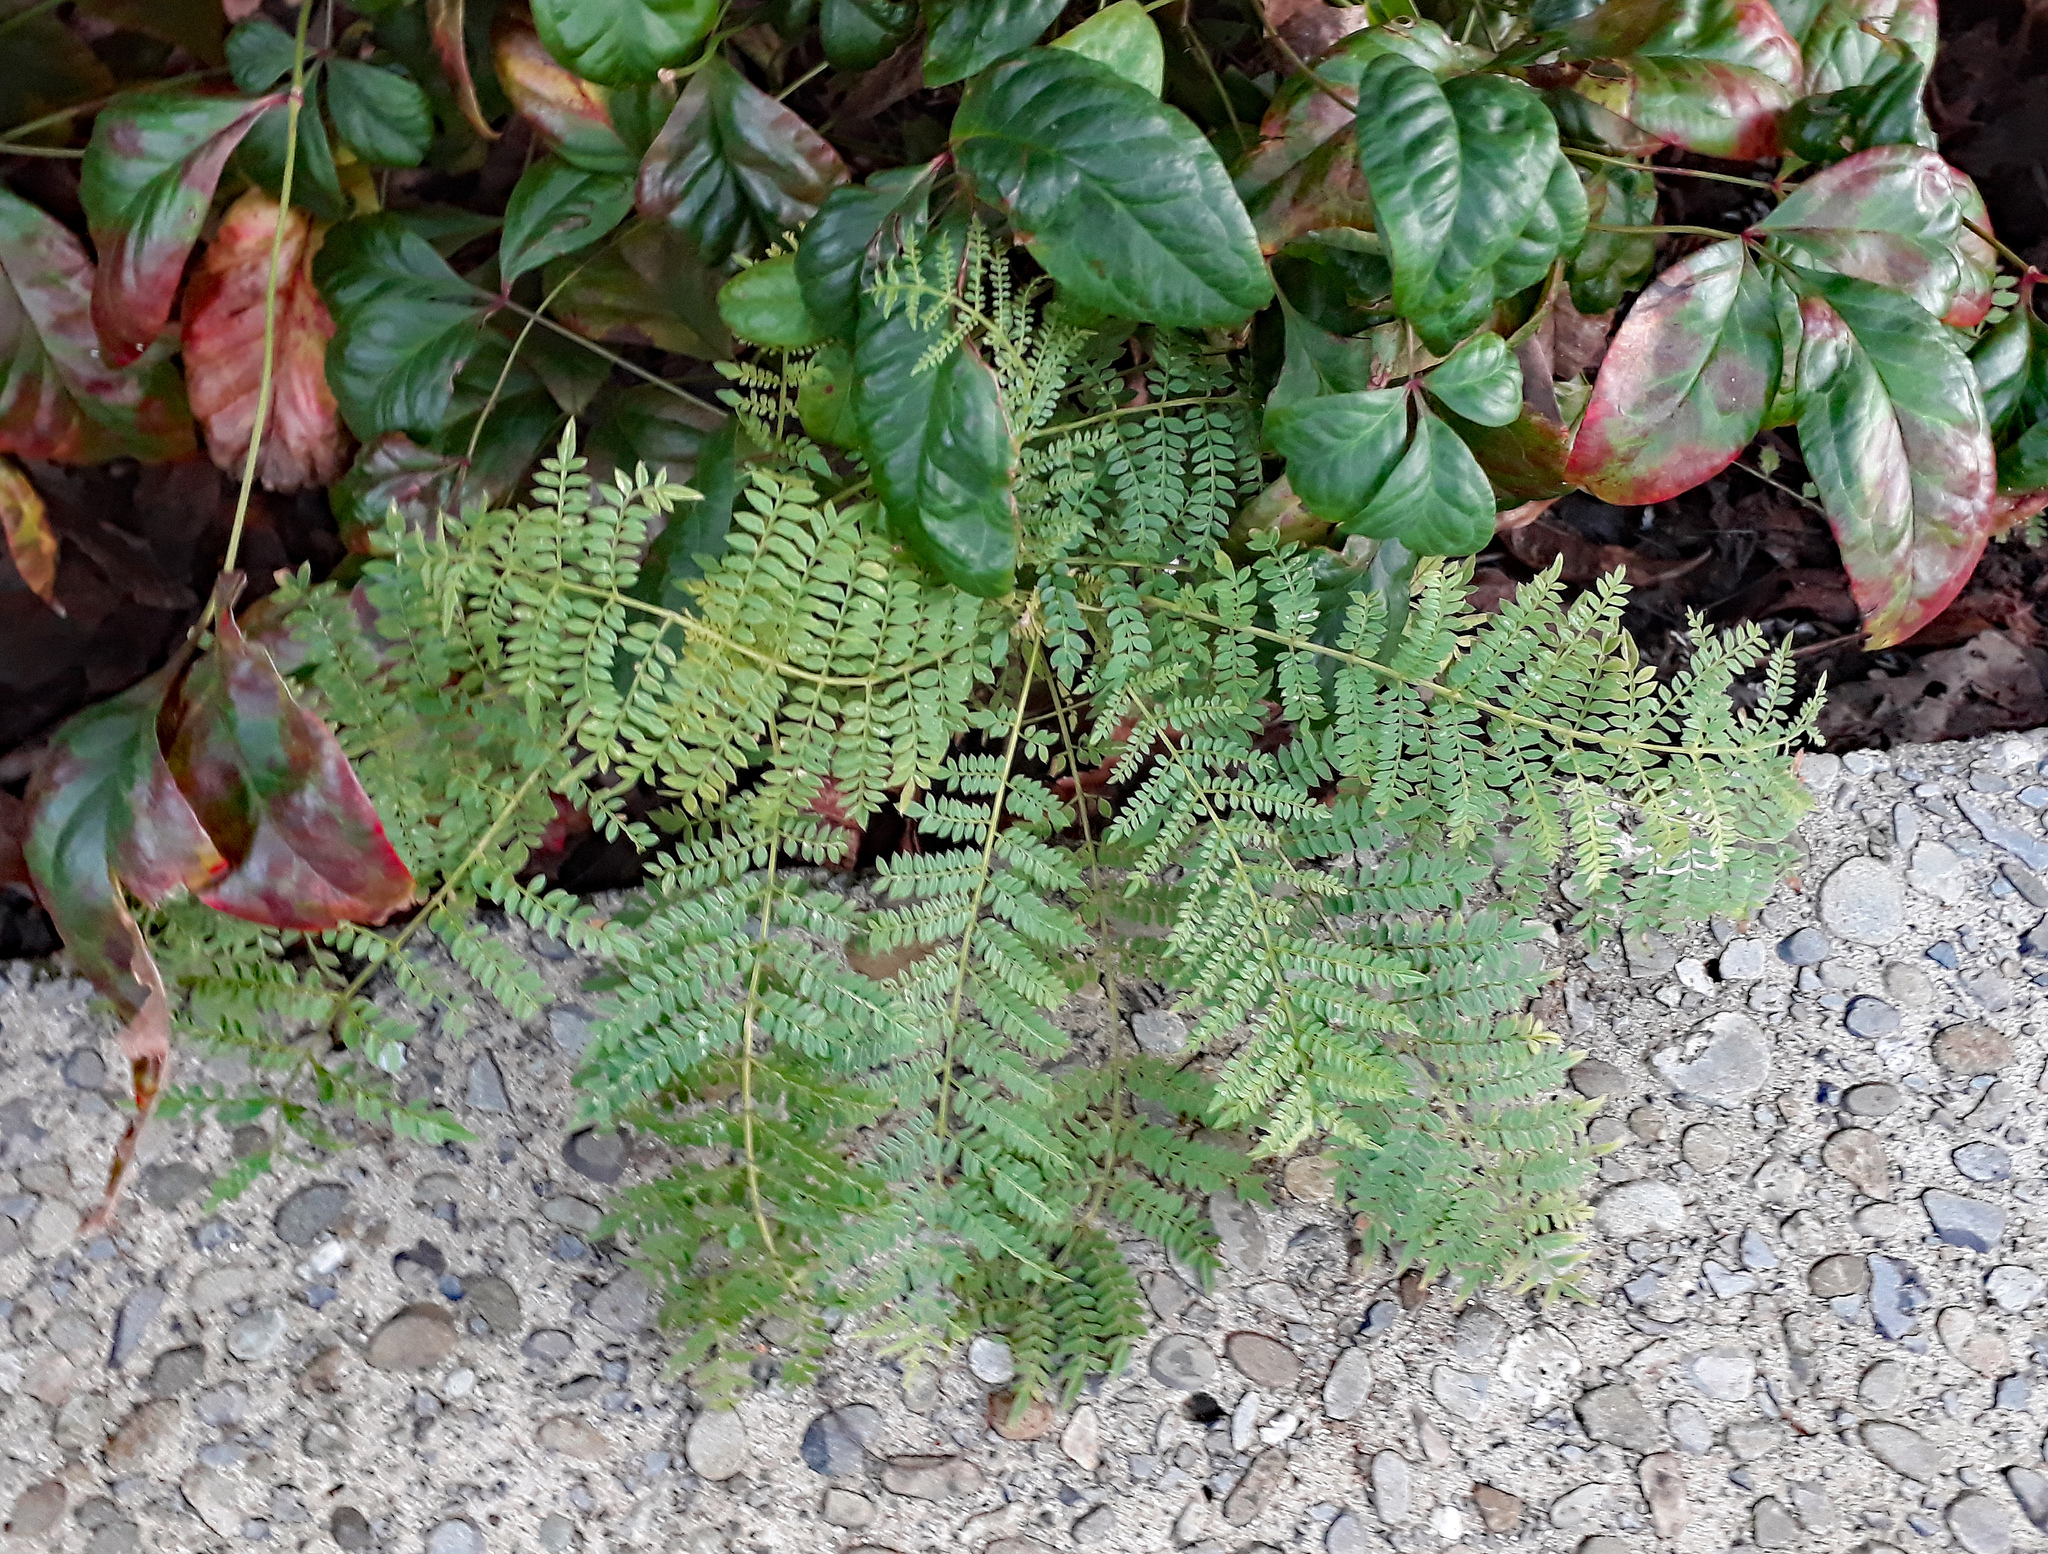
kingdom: Plantae
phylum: Tracheophyta
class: Magnoliopsida
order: Lamiales
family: Bignoniaceae
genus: Jacaranda
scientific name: Jacaranda mimosifolia
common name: Black poui
